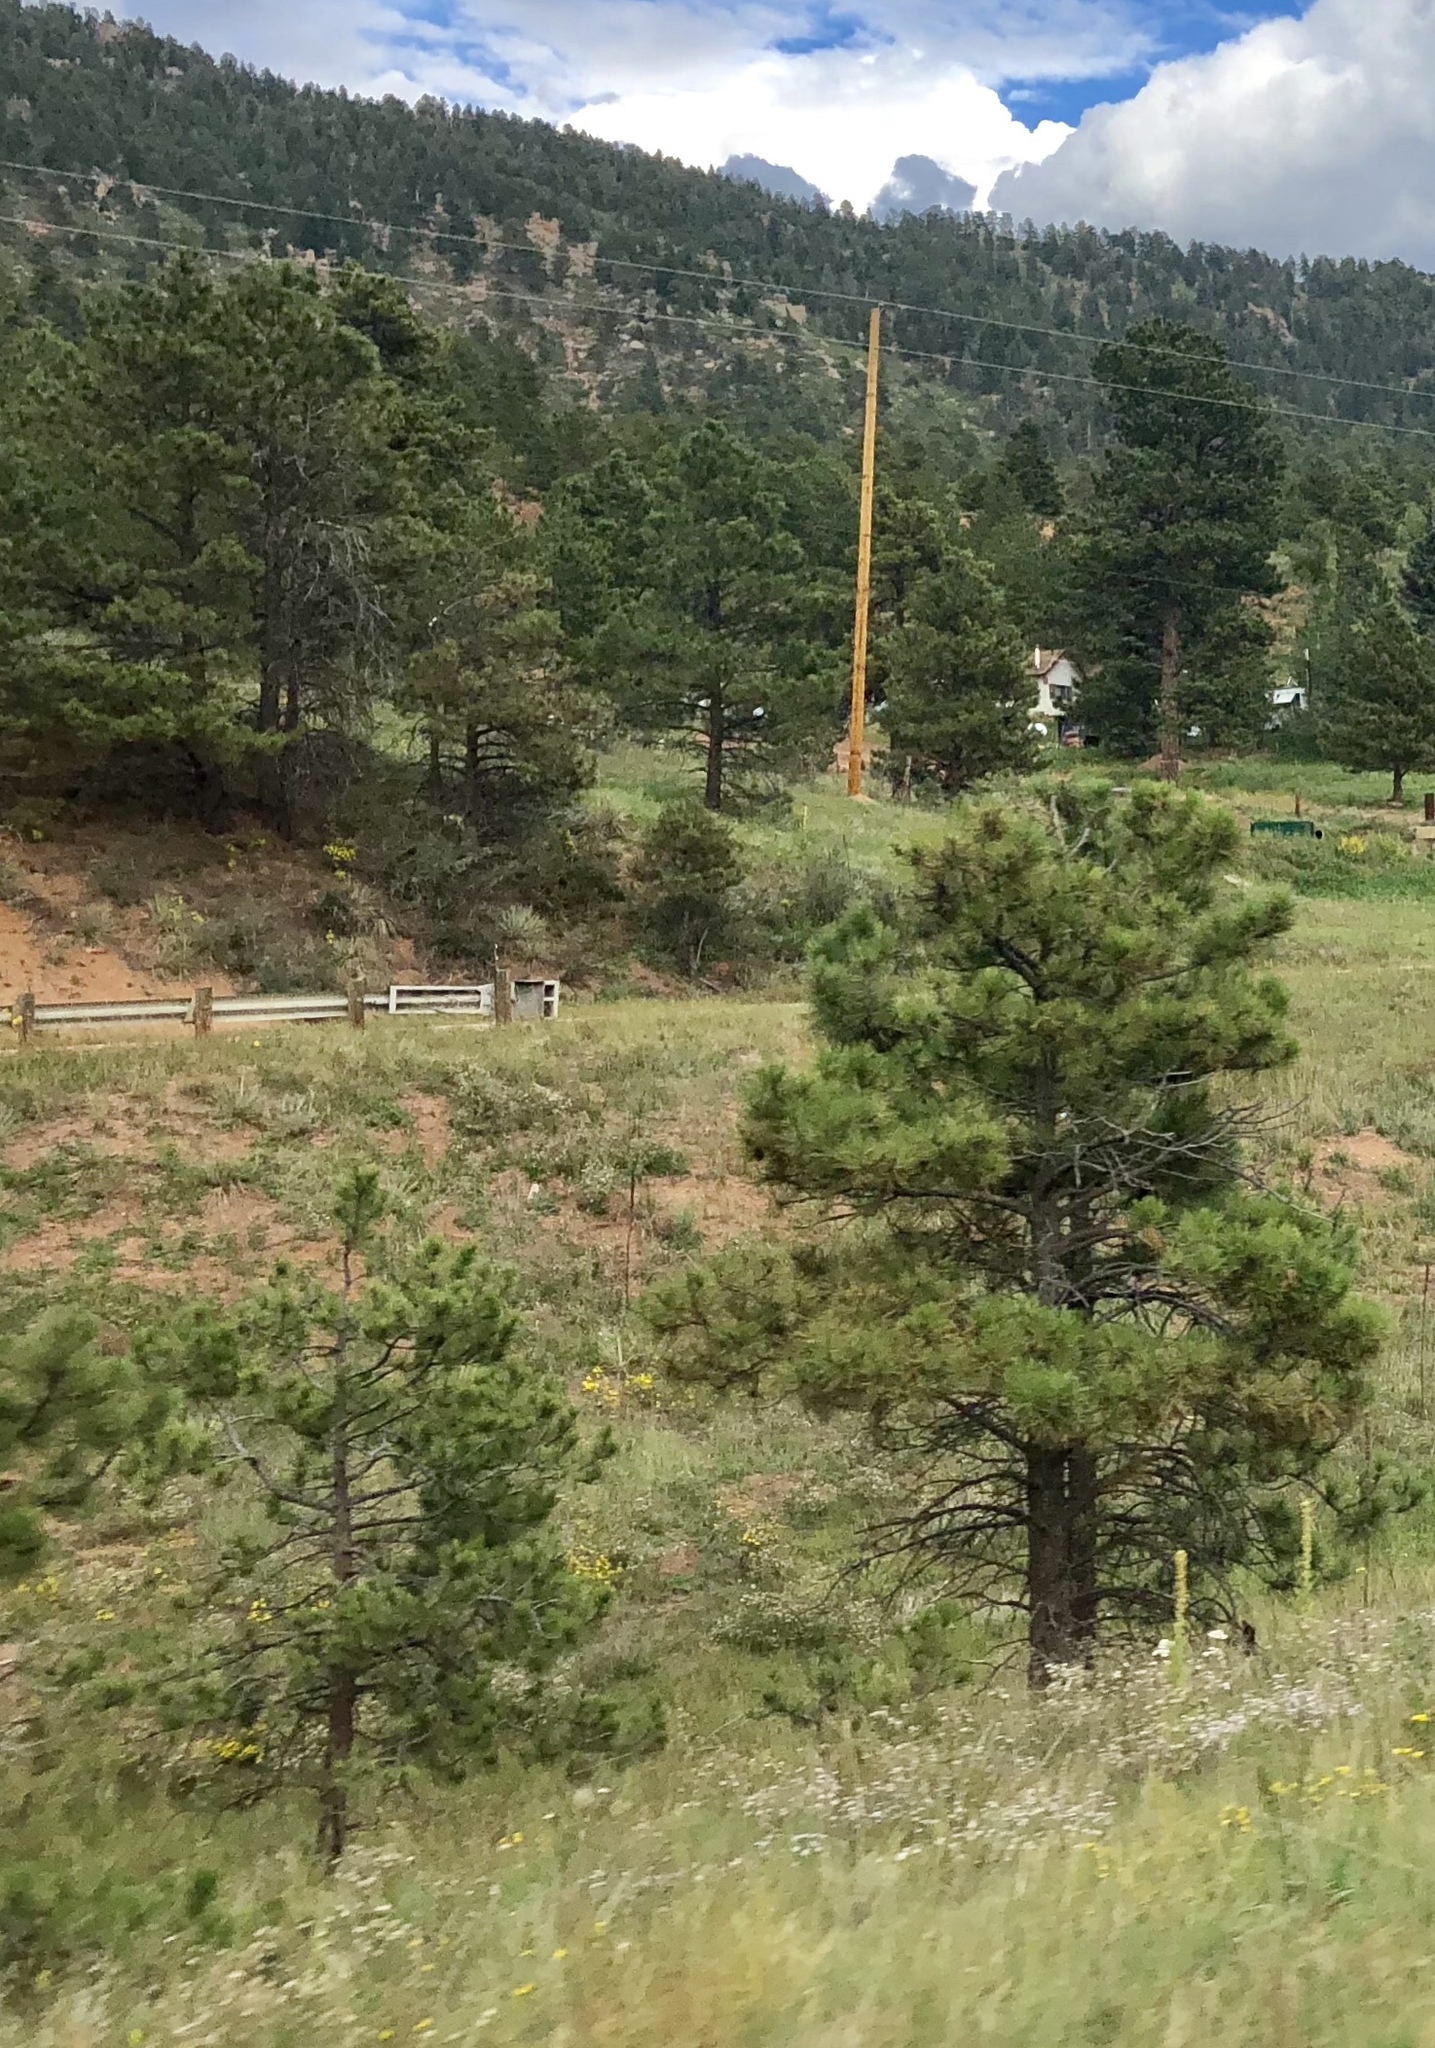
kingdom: Plantae
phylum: Tracheophyta
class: Pinopsida
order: Pinales
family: Pinaceae
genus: Pinus
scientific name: Pinus ponderosa
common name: Western yellow-pine
